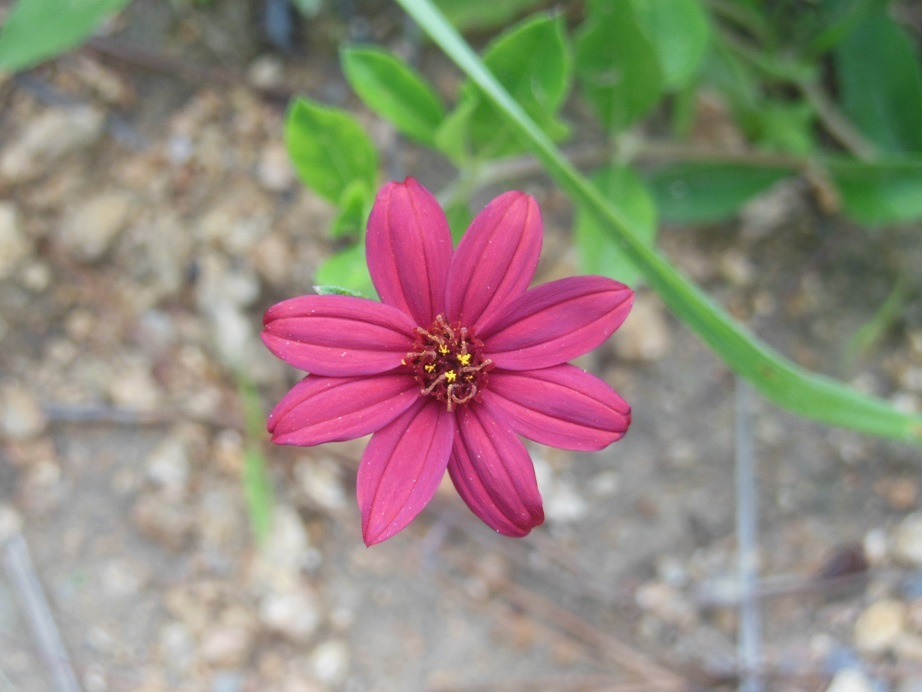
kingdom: Plantae
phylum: Tracheophyta
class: Magnoliopsida
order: Asterales
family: Asteraceae
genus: Wedelia
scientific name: Wedelia purpurea
